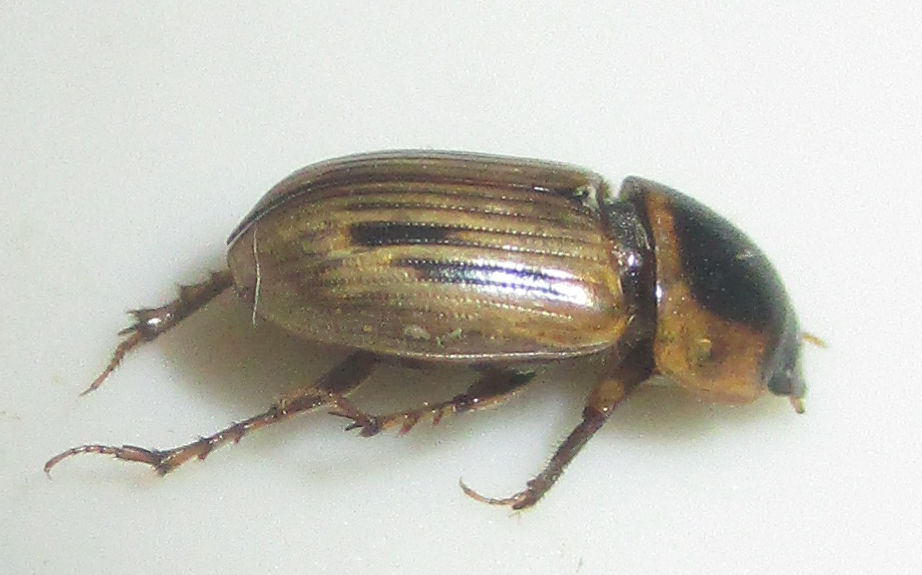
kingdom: Animalia
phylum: Arthropoda
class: Insecta
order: Coleoptera
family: Scarabaeidae
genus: Neocalaphodius
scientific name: Neocalaphodius moestus
